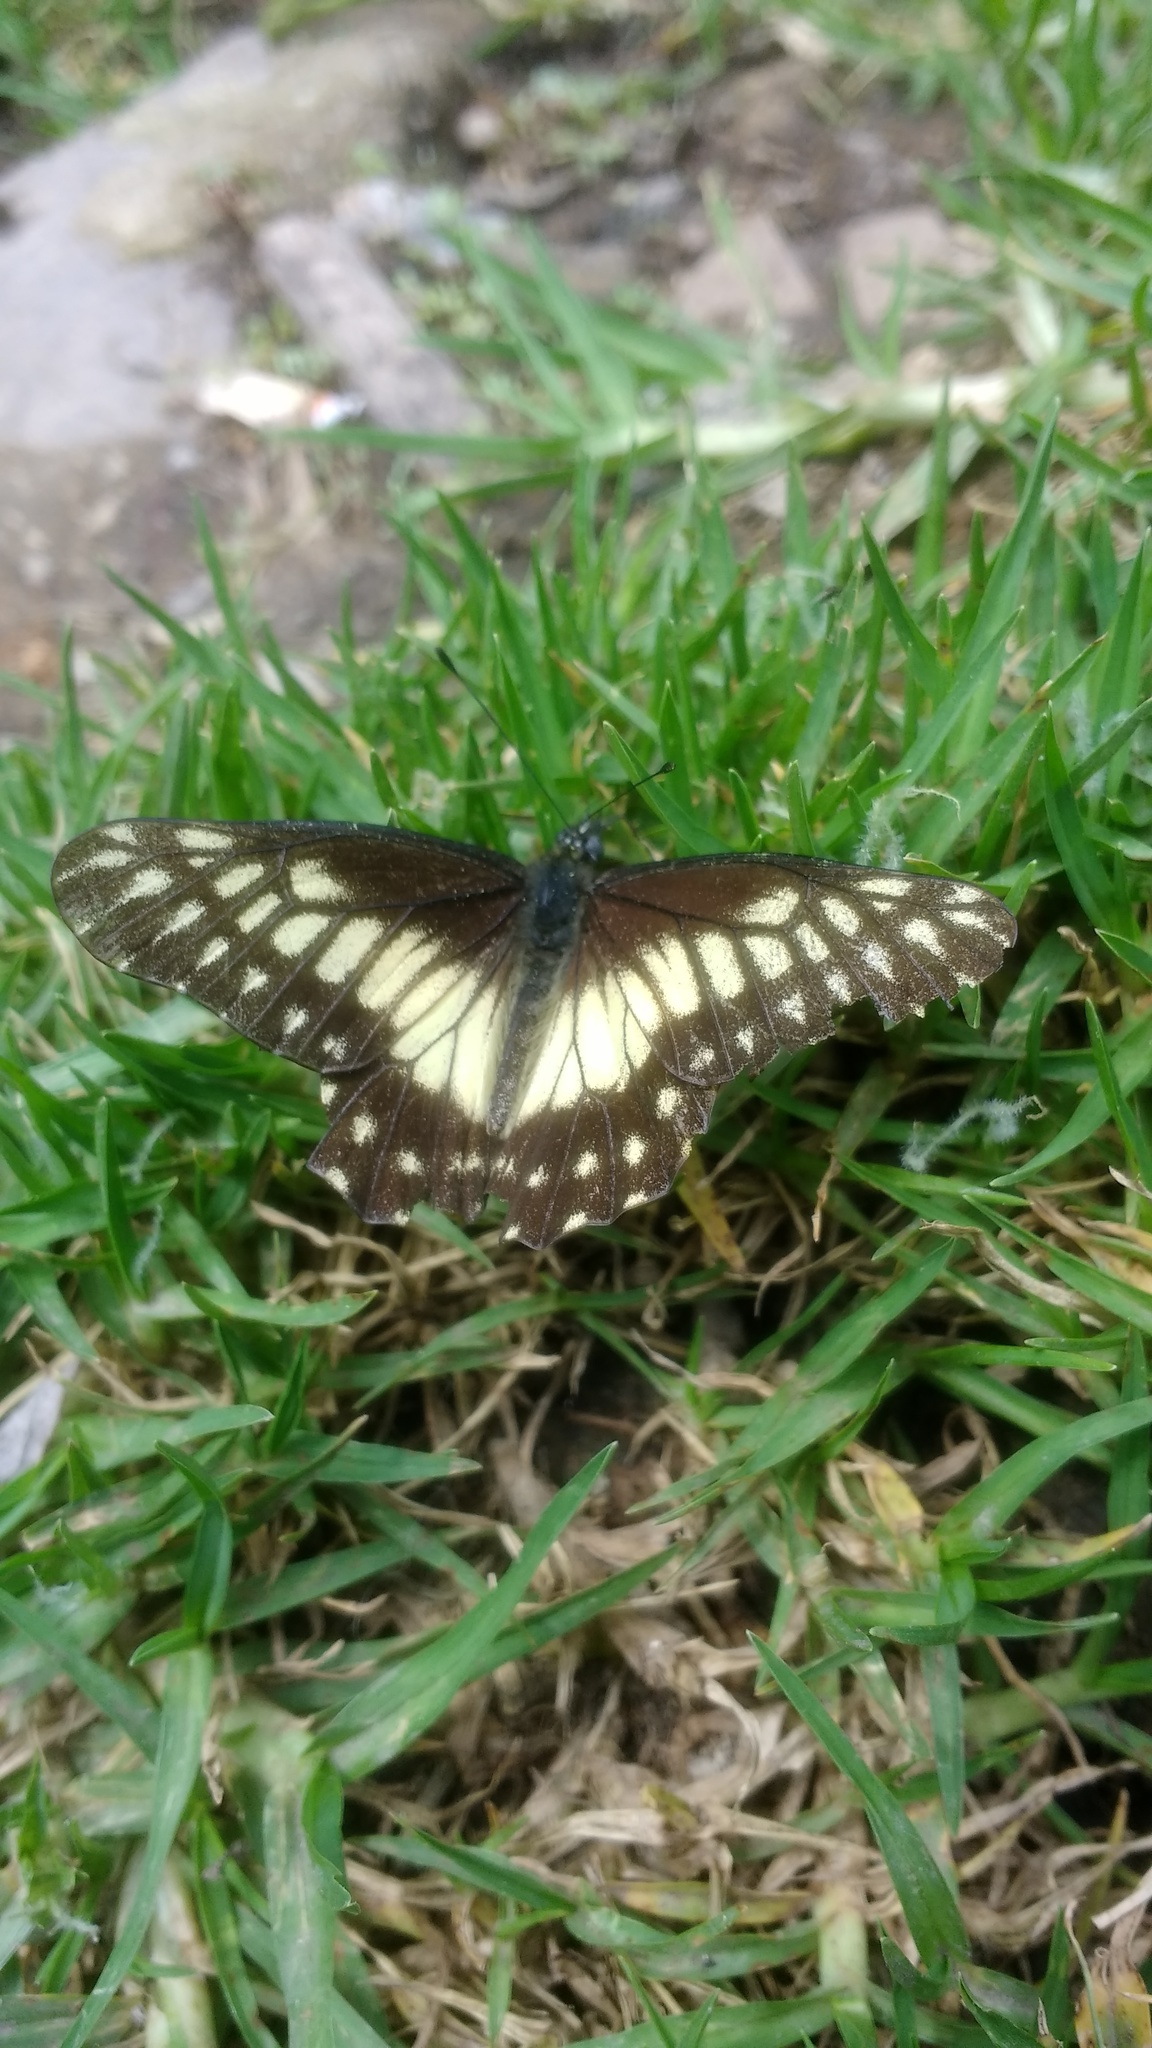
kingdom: Animalia
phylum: Arthropoda
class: Insecta
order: Lepidoptera
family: Pieridae
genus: Archonias
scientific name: Archonias nimbice
